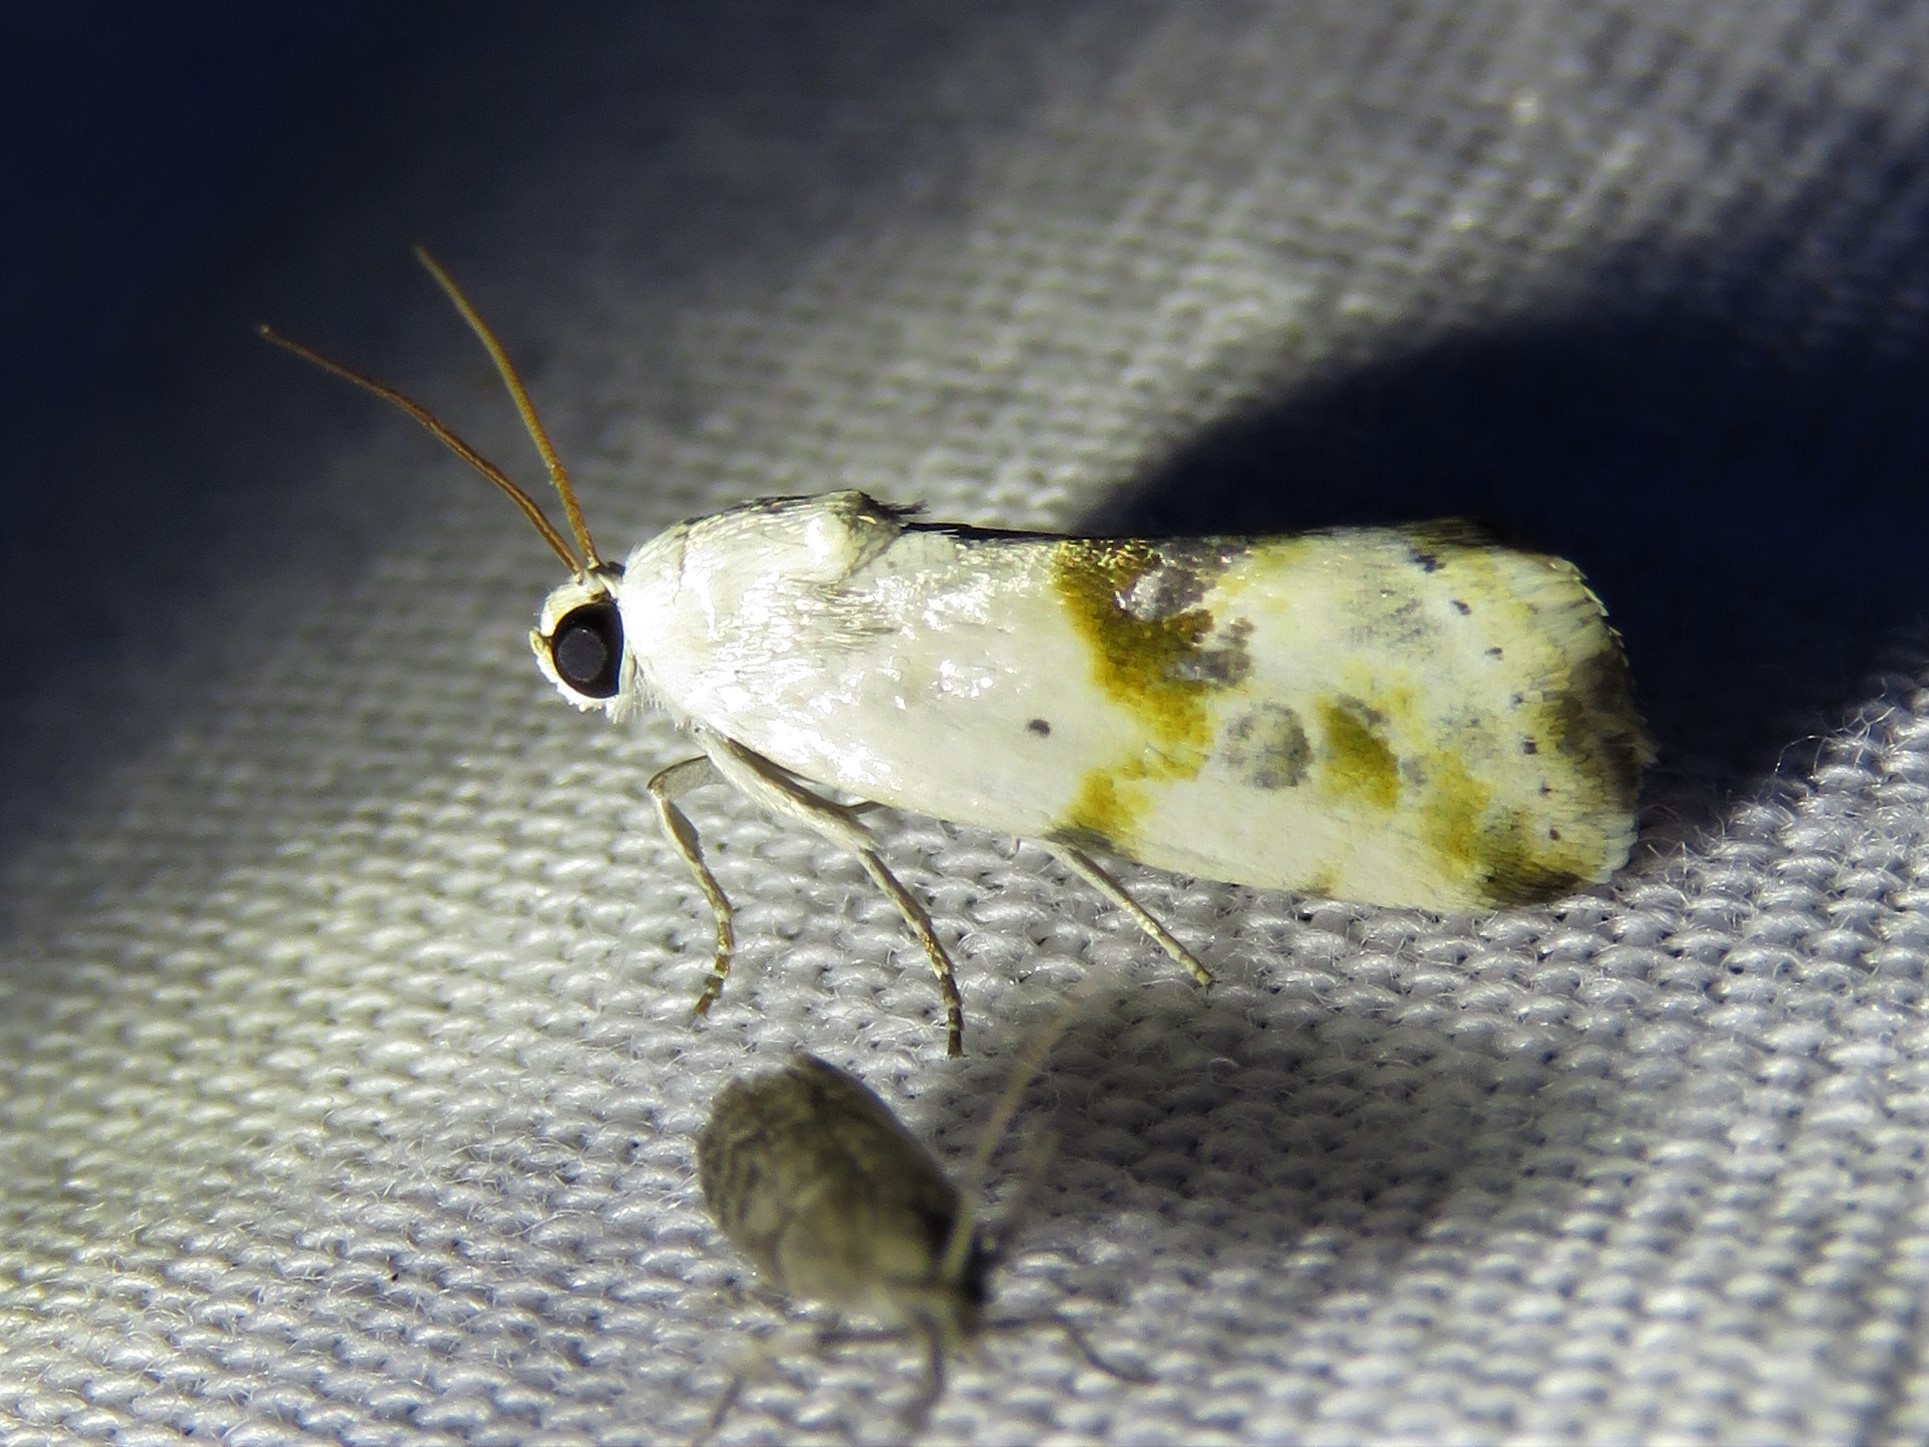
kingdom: Animalia
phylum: Arthropoda
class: Insecta
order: Lepidoptera
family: Noctuidae
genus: Acontia
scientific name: Acontia candefacta
